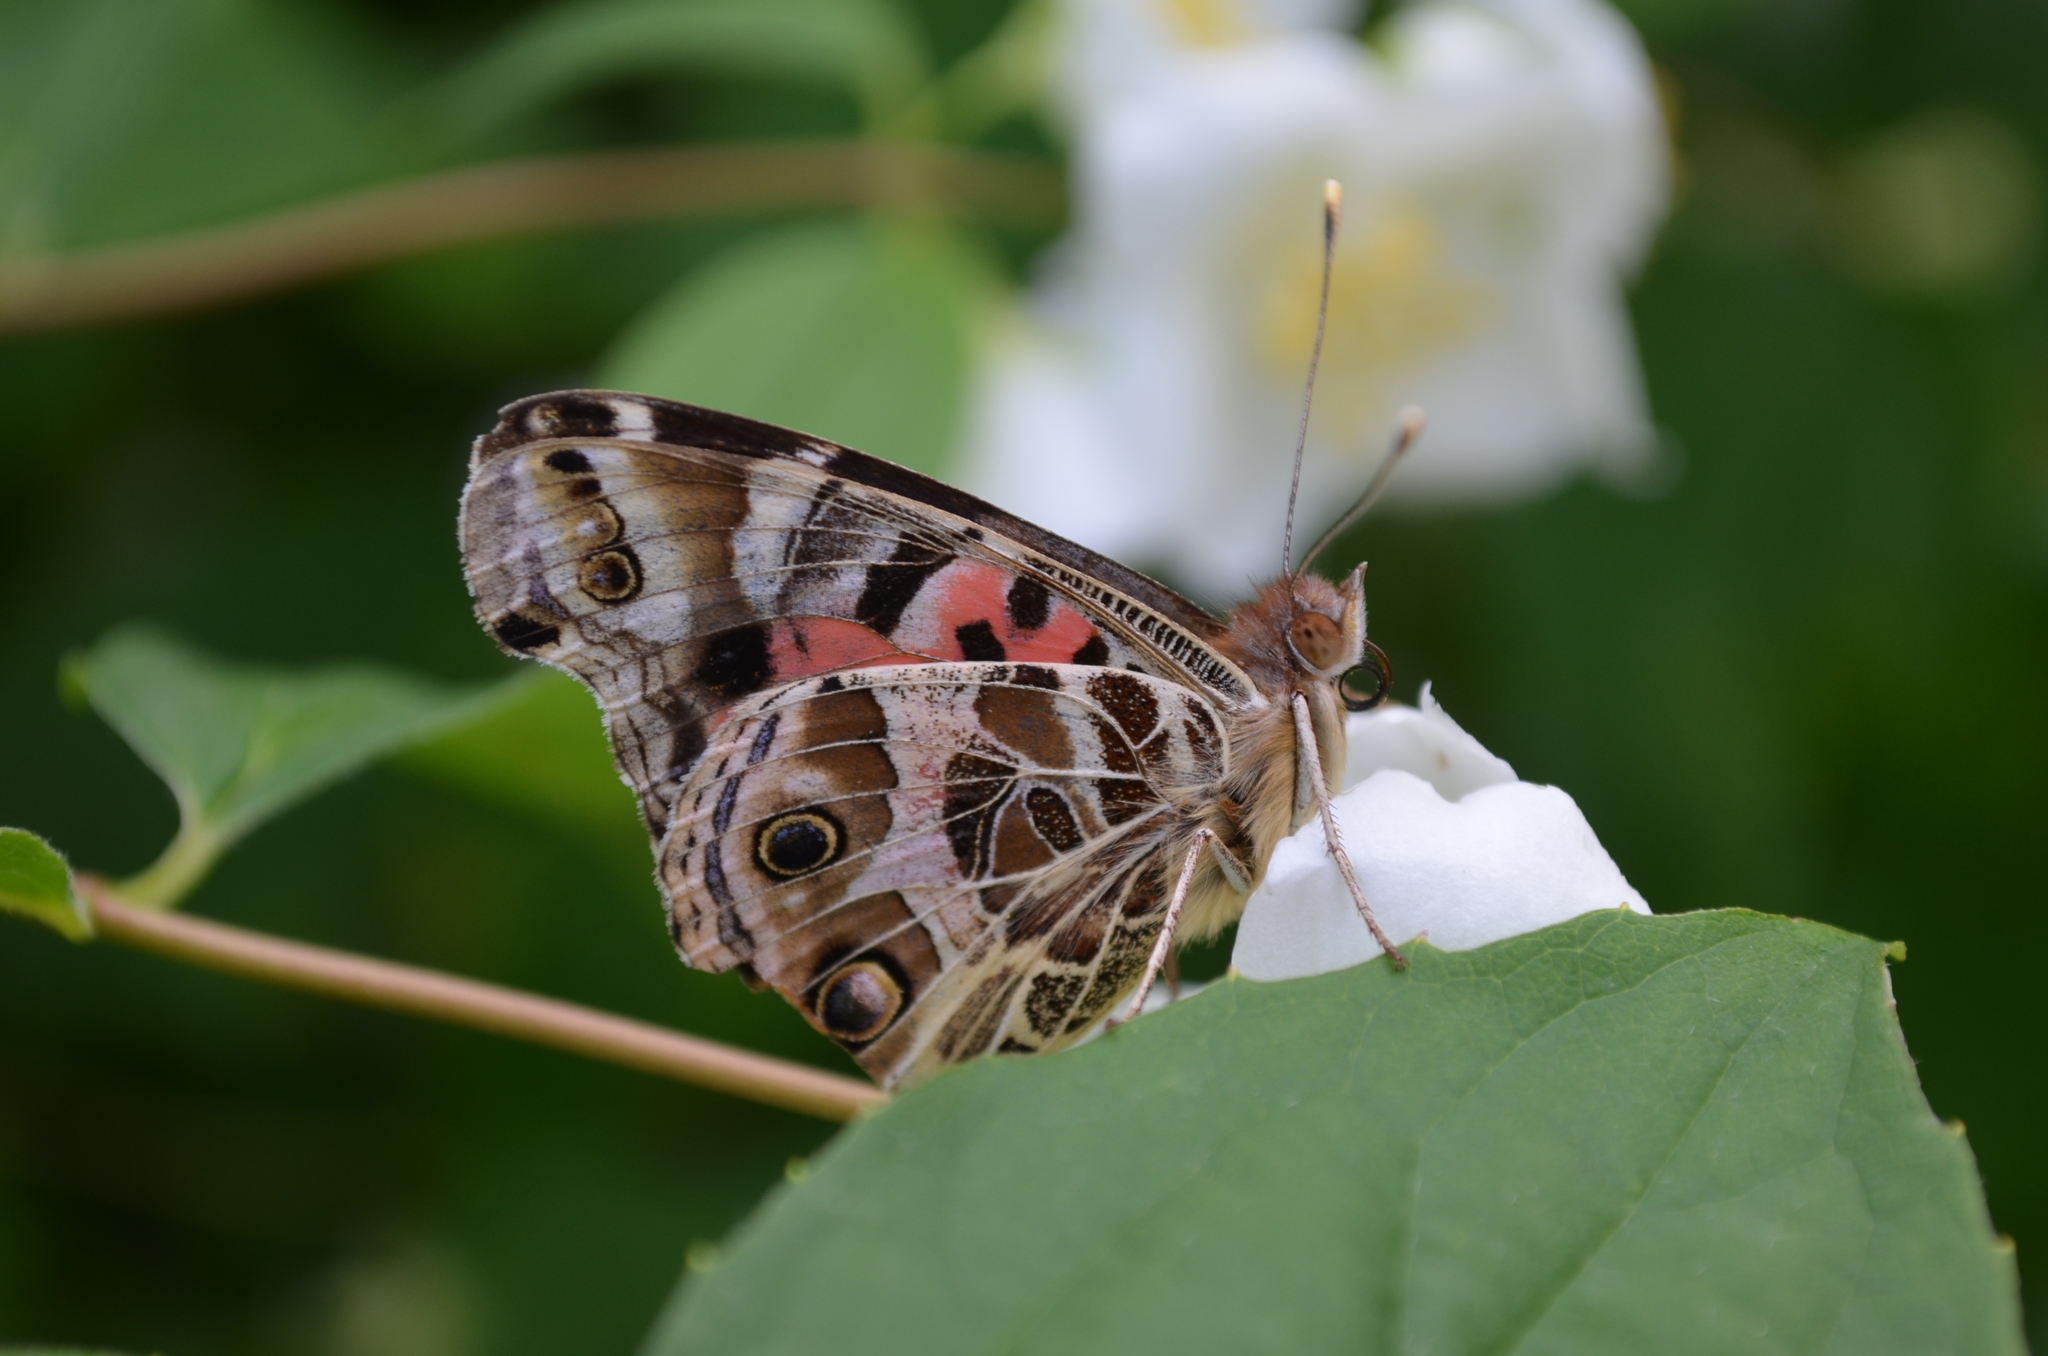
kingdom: Animalia
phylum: Arthropoda
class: Insecta
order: Lepidoptera
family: Nymphalidae
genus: Vanessa
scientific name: Vanessa braziliensis
